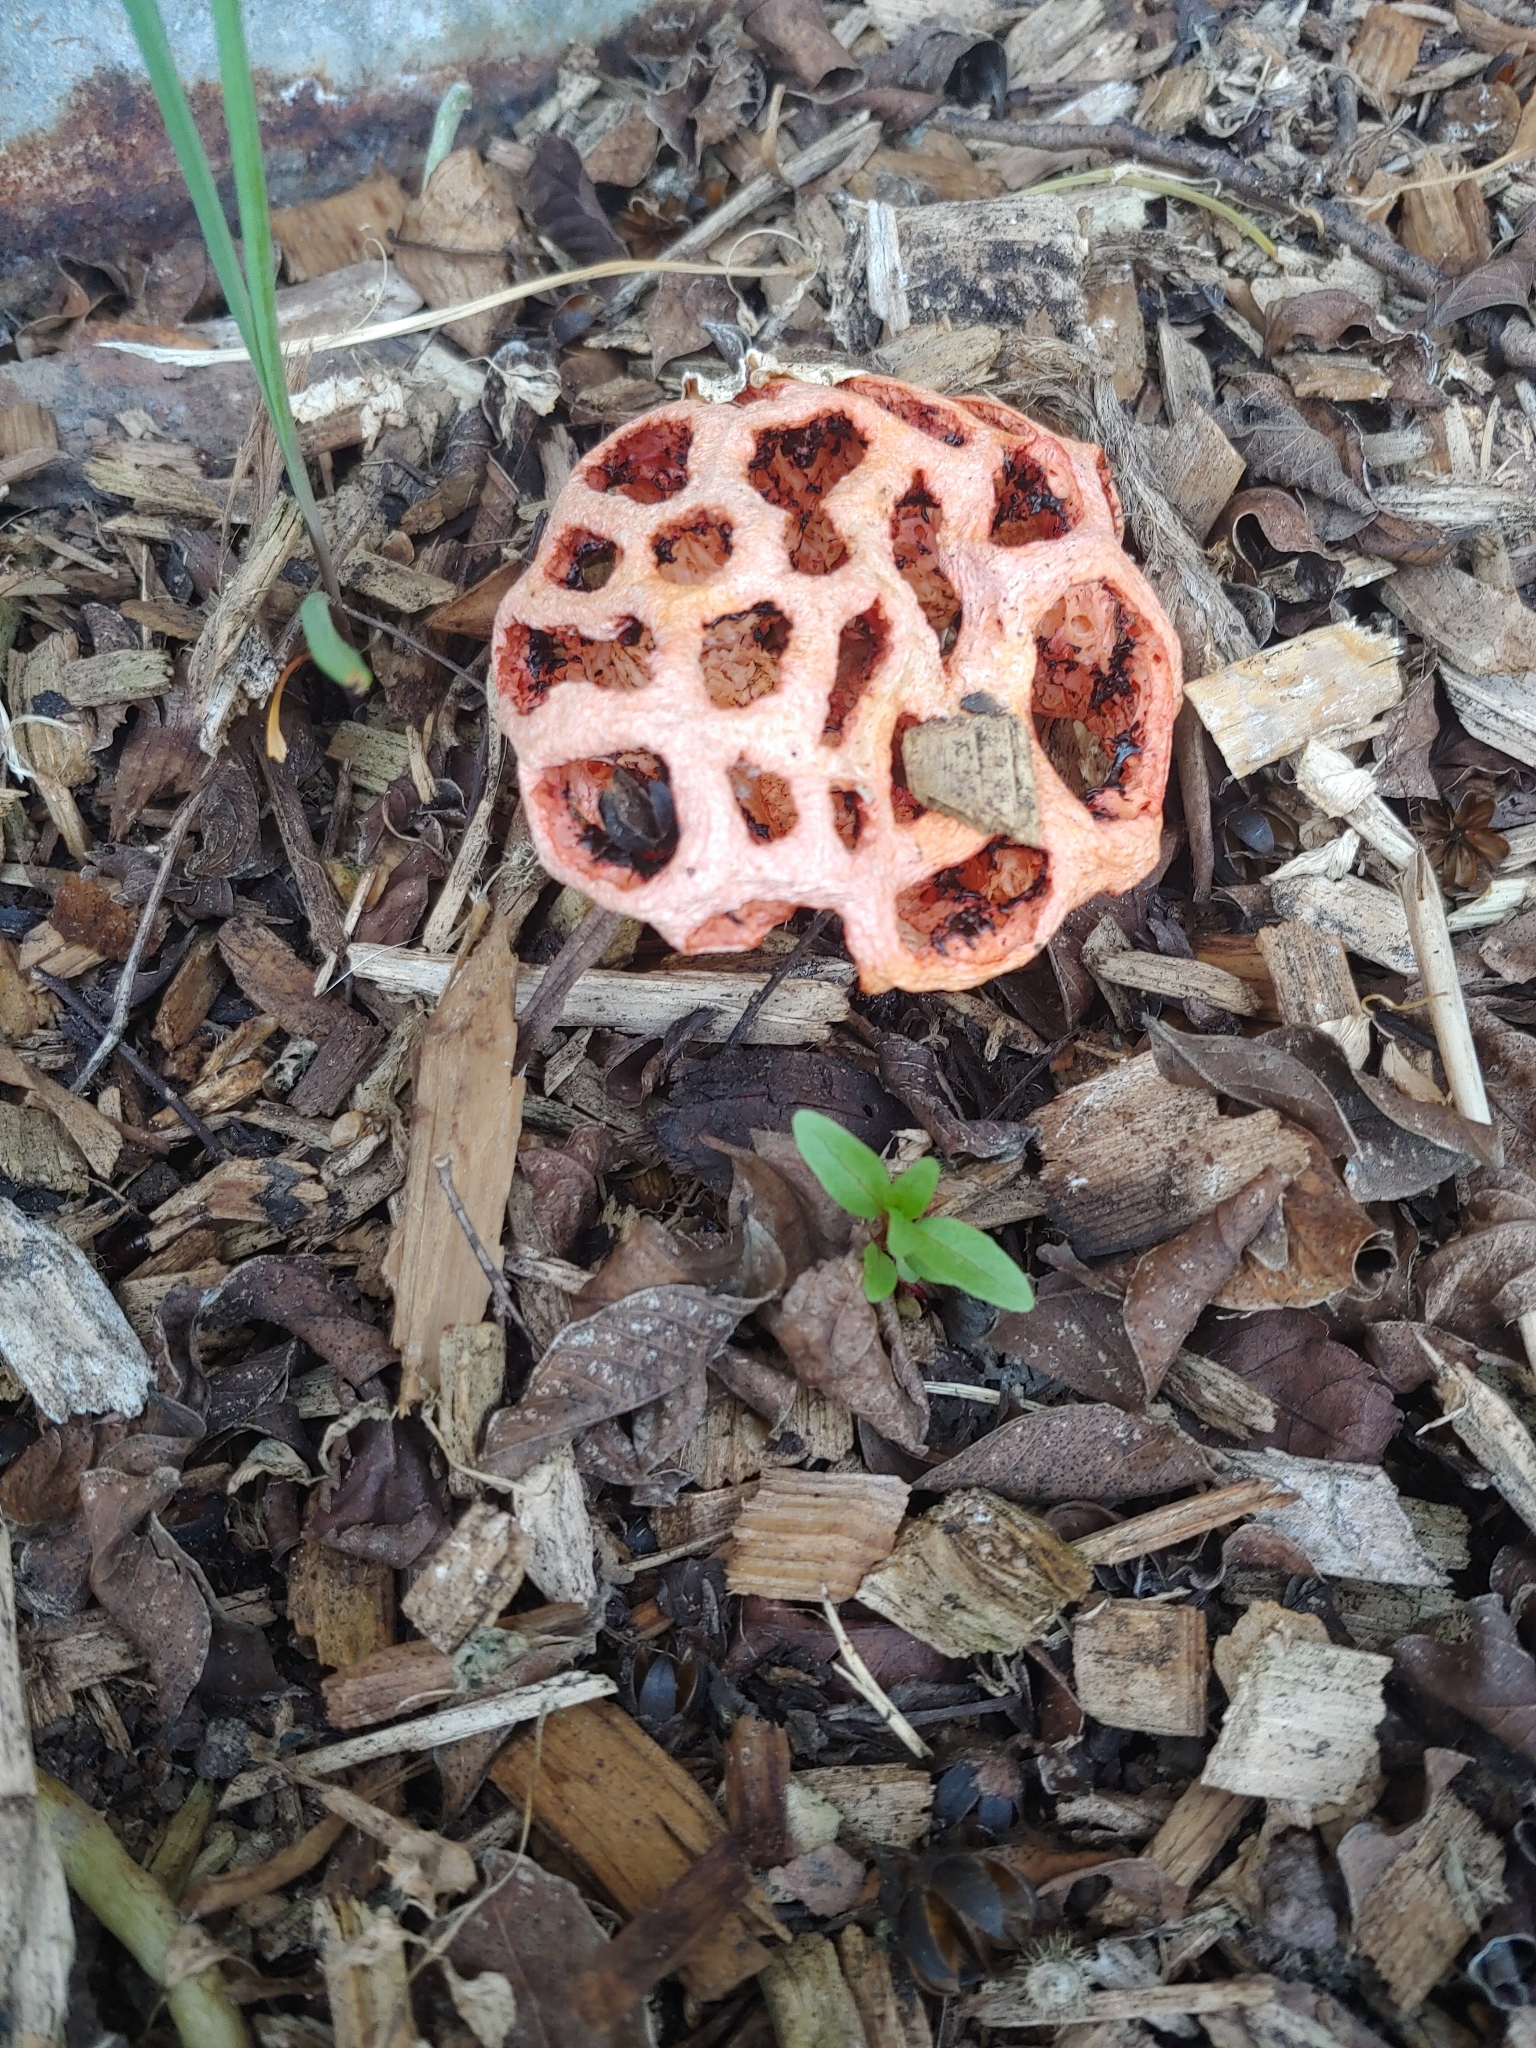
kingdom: Fungi
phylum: Basidiomycota
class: Agaricomycetes
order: Phallales
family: Phallaceae
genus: Clathrus
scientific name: Clathrus ruber
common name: Red cage
